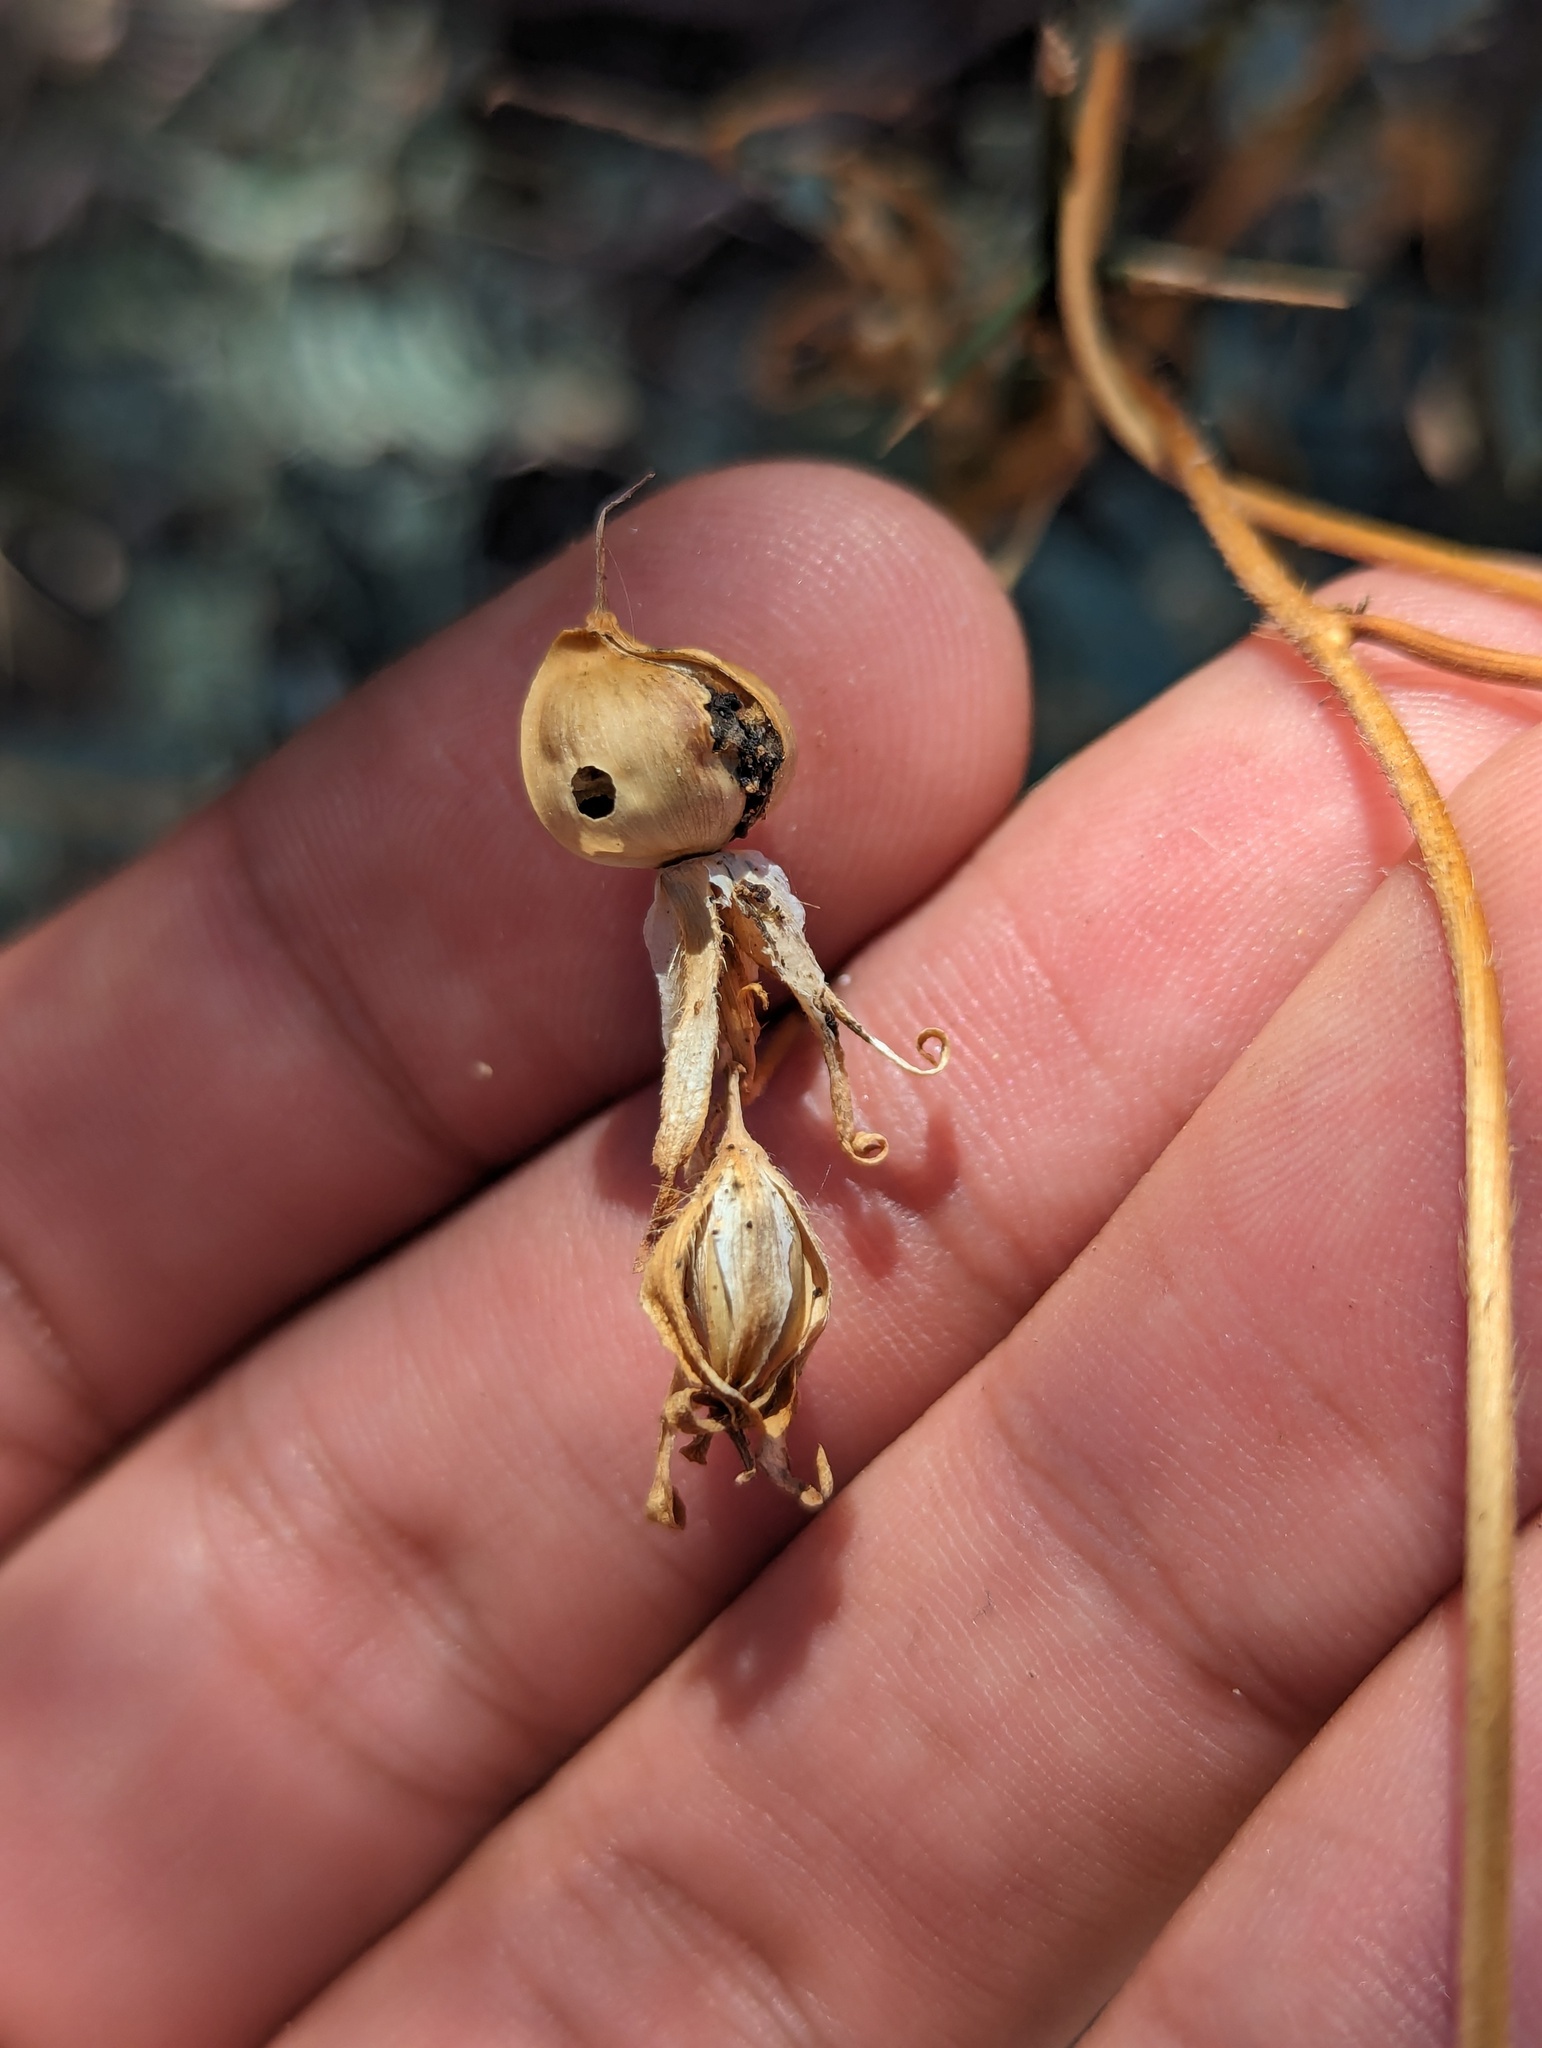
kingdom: Plantae
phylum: Tracheophyta
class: Magnoliopsida
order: Solanales
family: Convolvulaceae
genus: Ipomoea
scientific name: Ipomoea nil
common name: Japanese morning-glory
